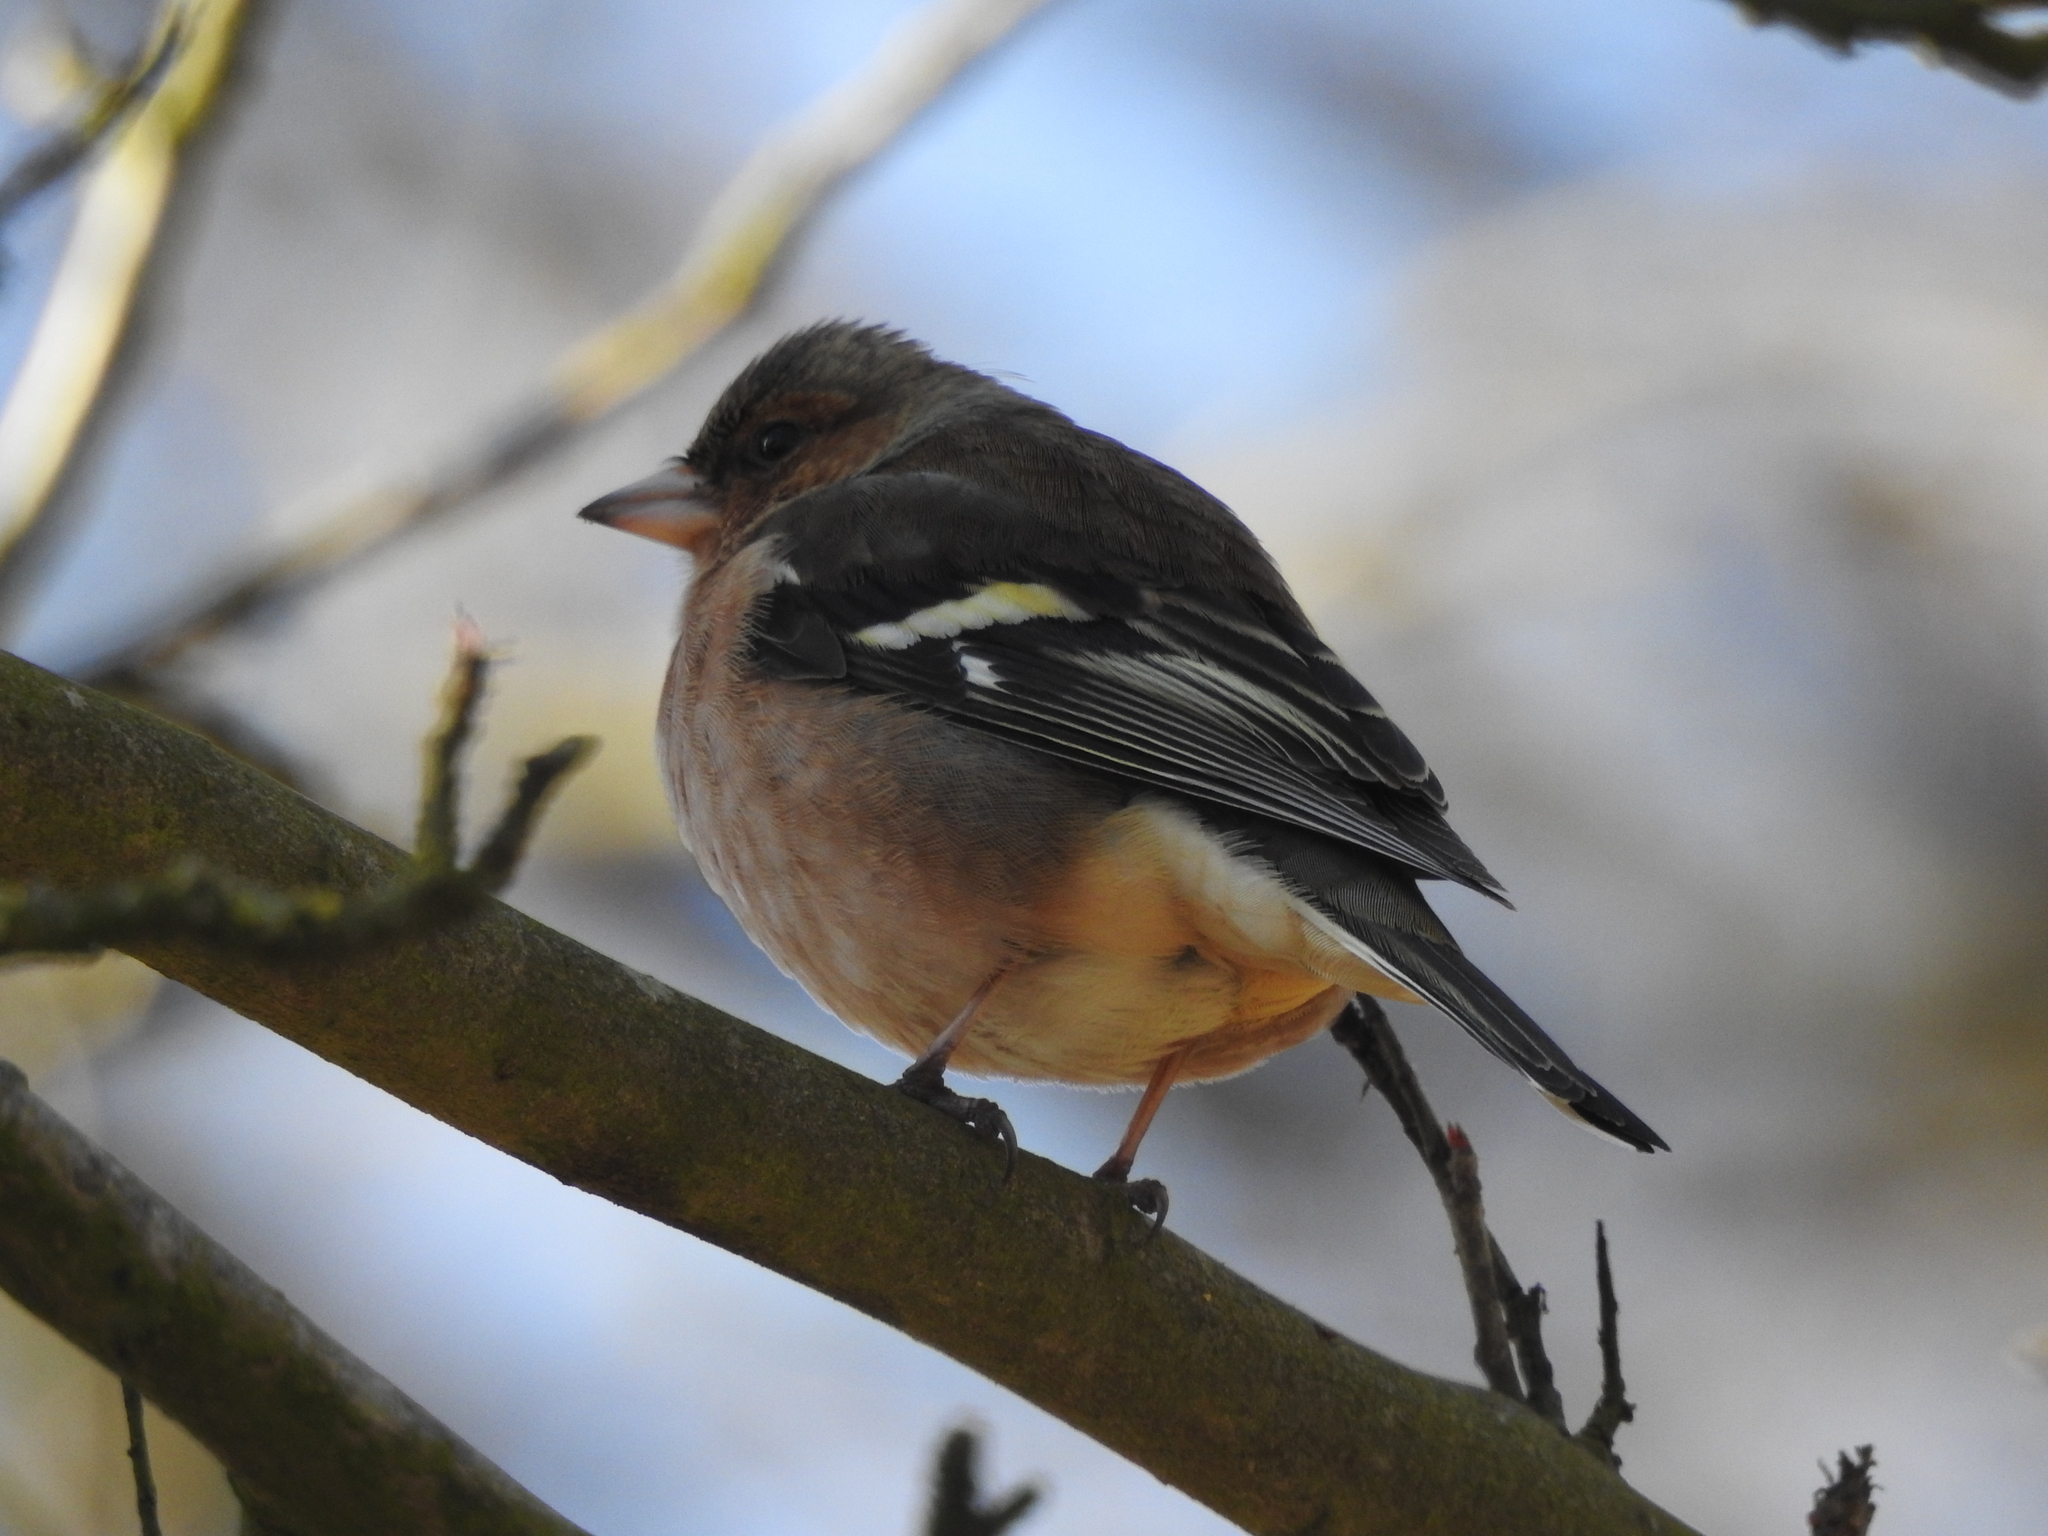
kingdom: Animalia
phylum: Chordata
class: Aves
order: Passeriformes
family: Fringillidae
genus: Fringilla
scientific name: Fringilla coelebs
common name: Common chaffinch
